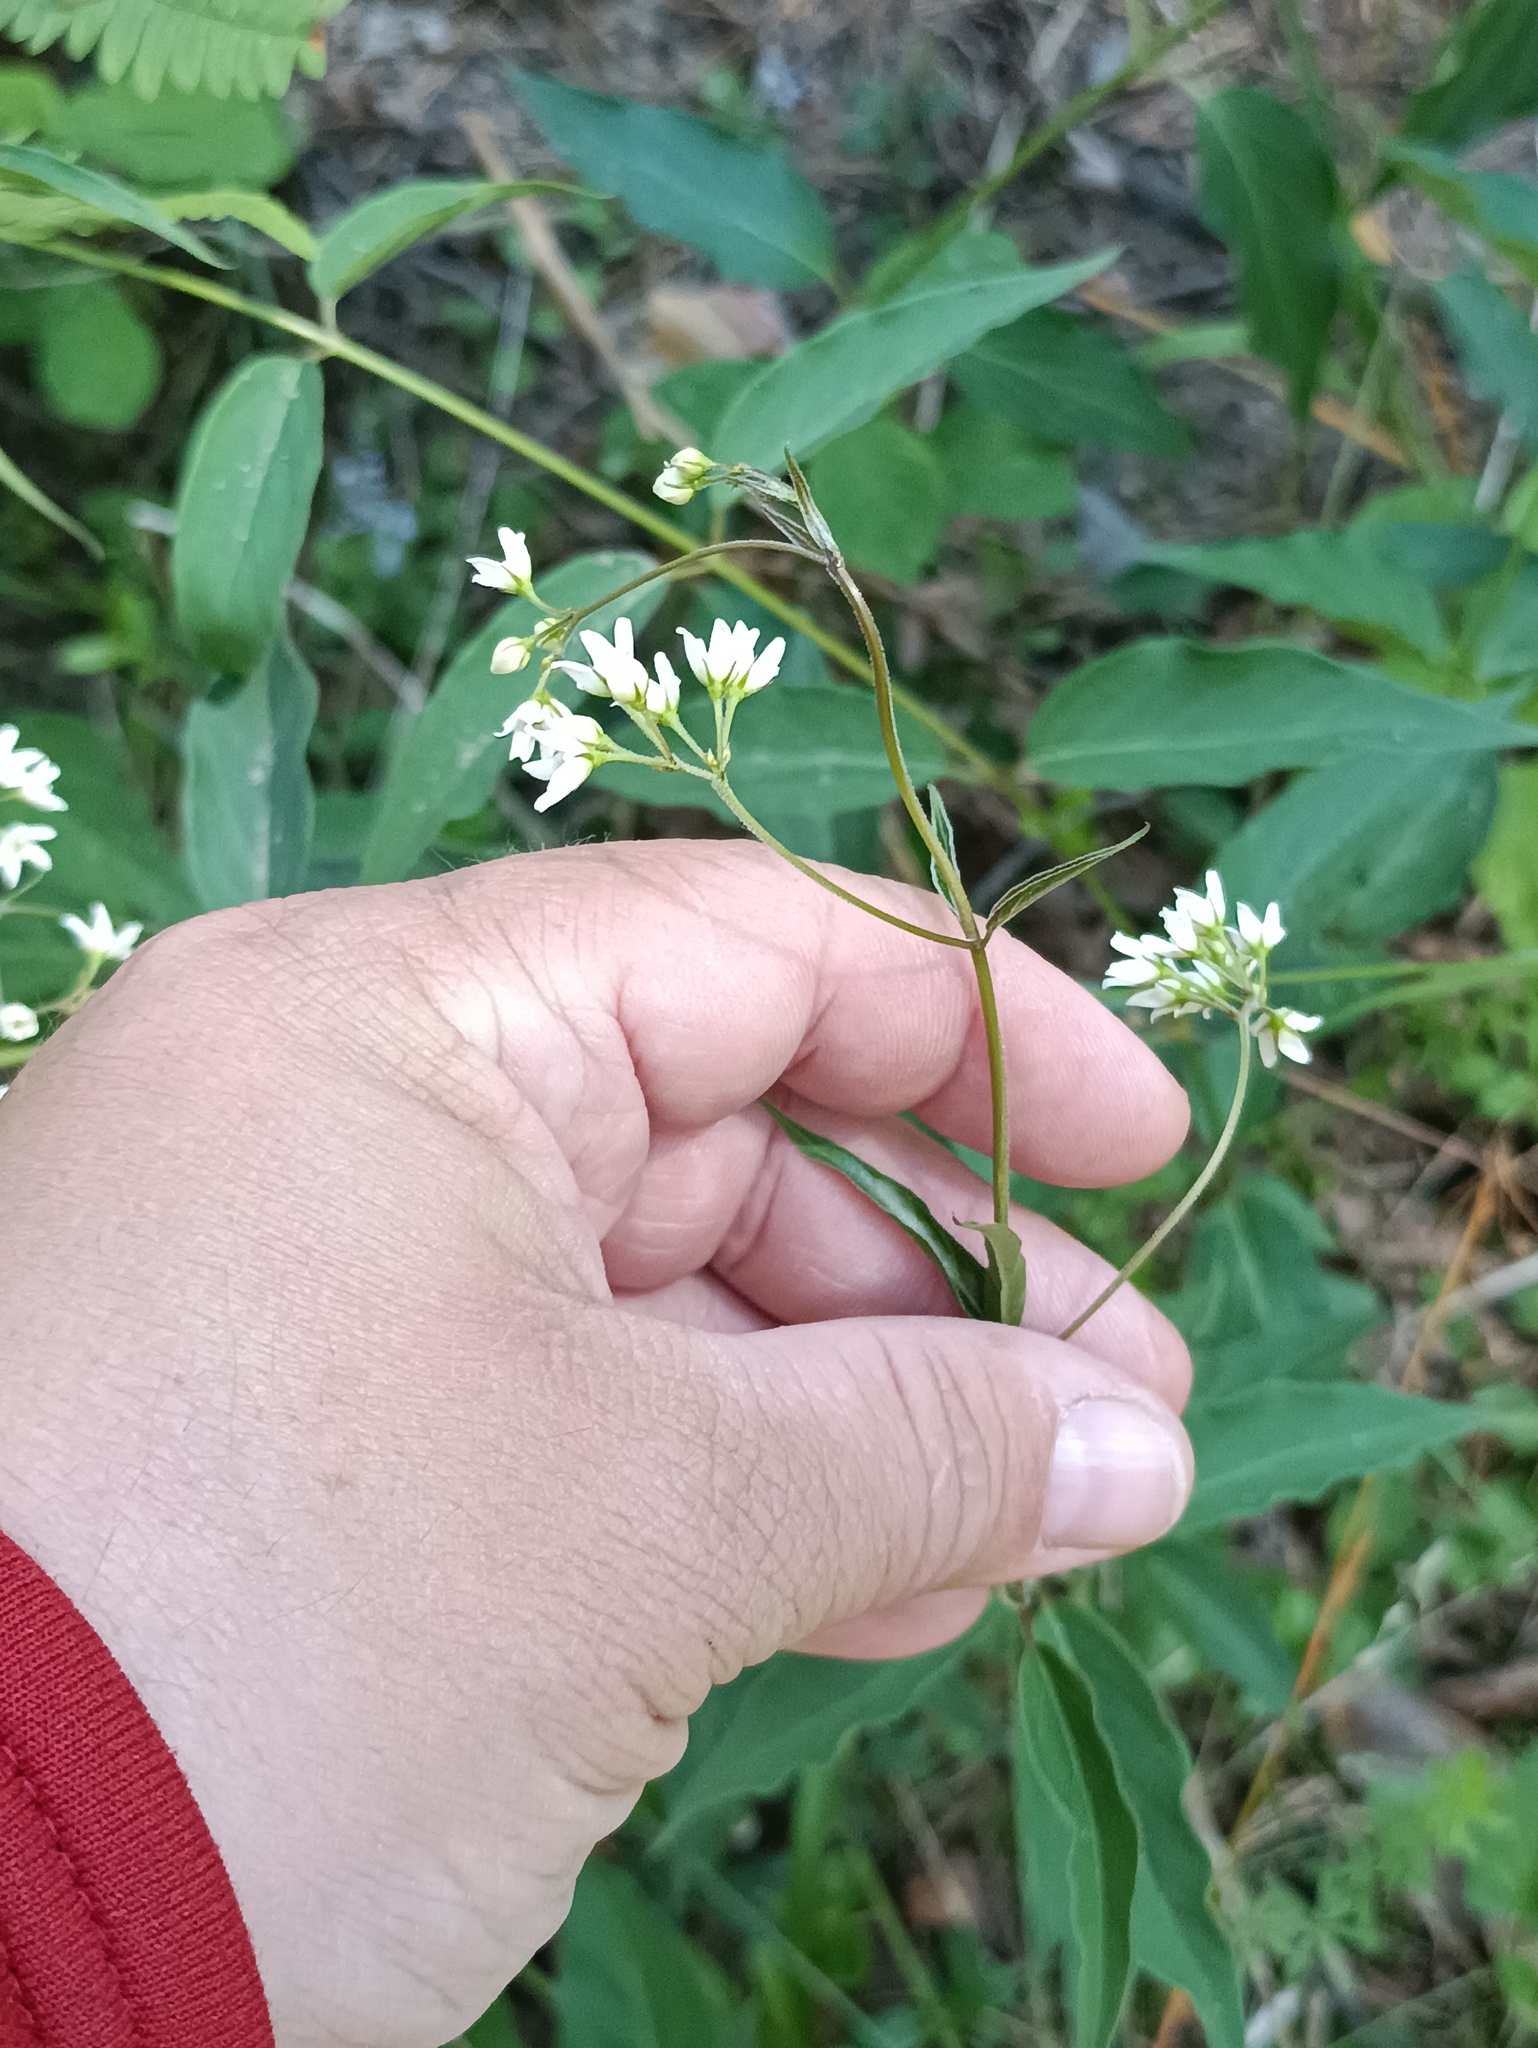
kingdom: Plantae
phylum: Tracheophyta
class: Magnoliopsida
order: Gentianales
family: Apocynaceae
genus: Vincetoxicum
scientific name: Vincetoxicum hirundinaria
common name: White swallowwort
